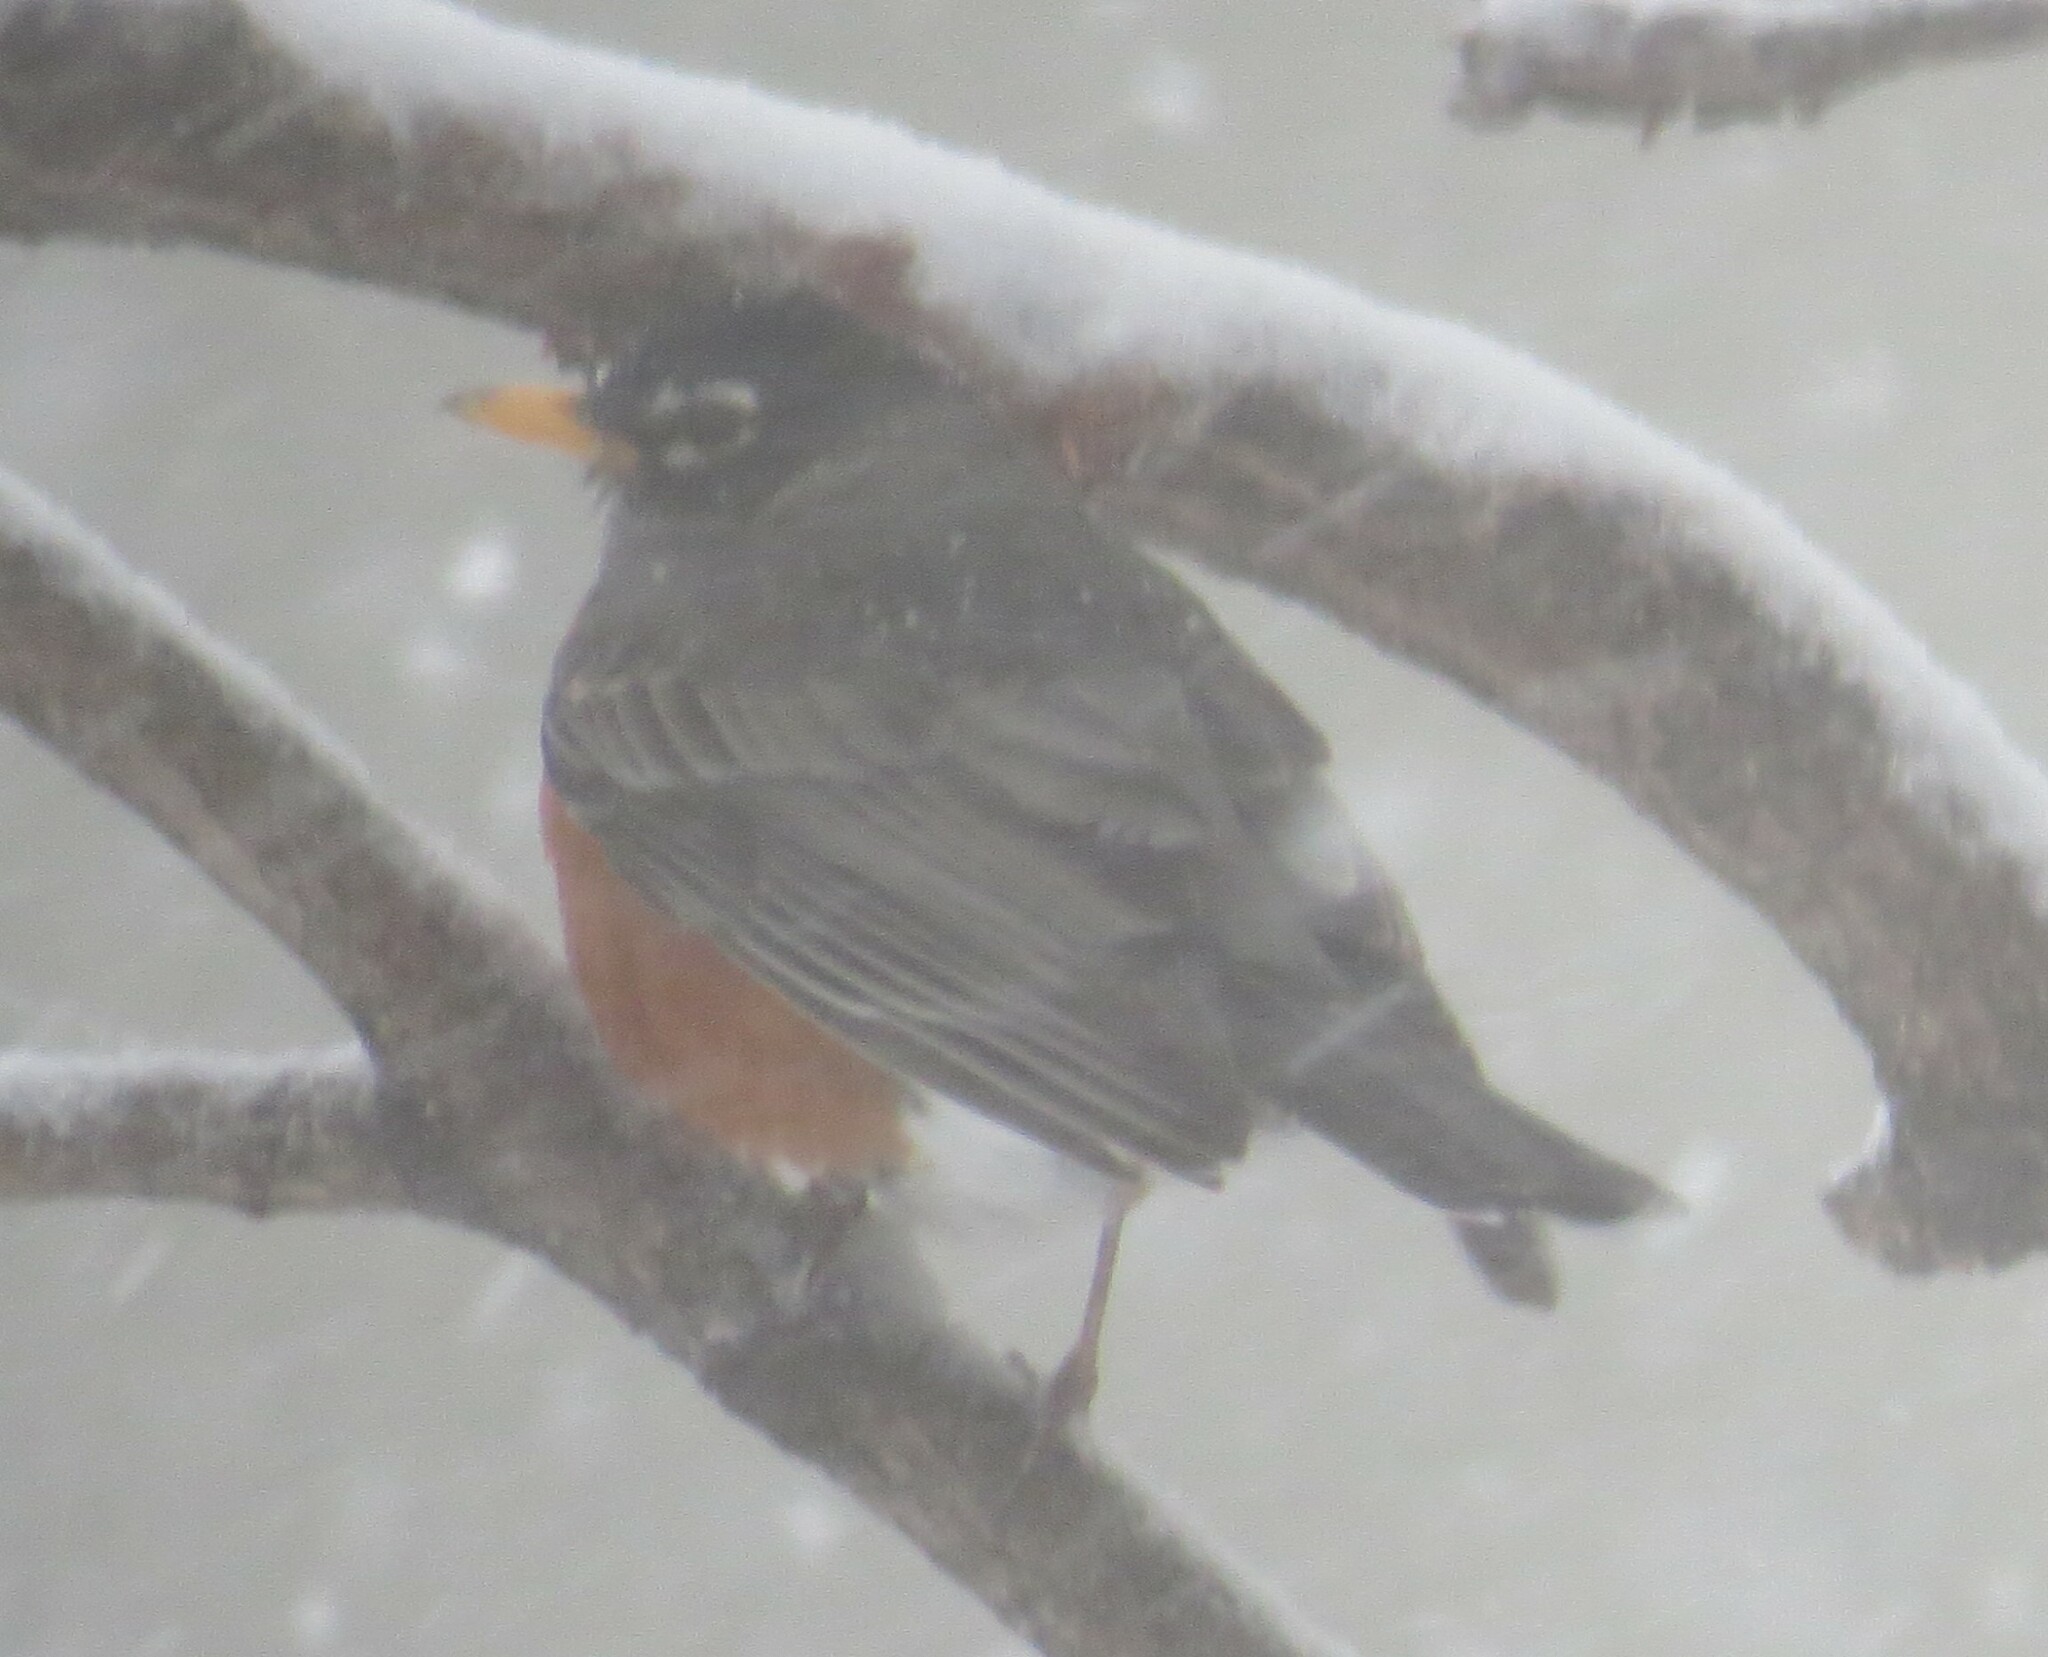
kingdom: Animalia
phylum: Chordata
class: Aves
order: Passeriformes
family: Turdidae
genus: Turdus
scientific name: Turdus migratorius
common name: American robin
